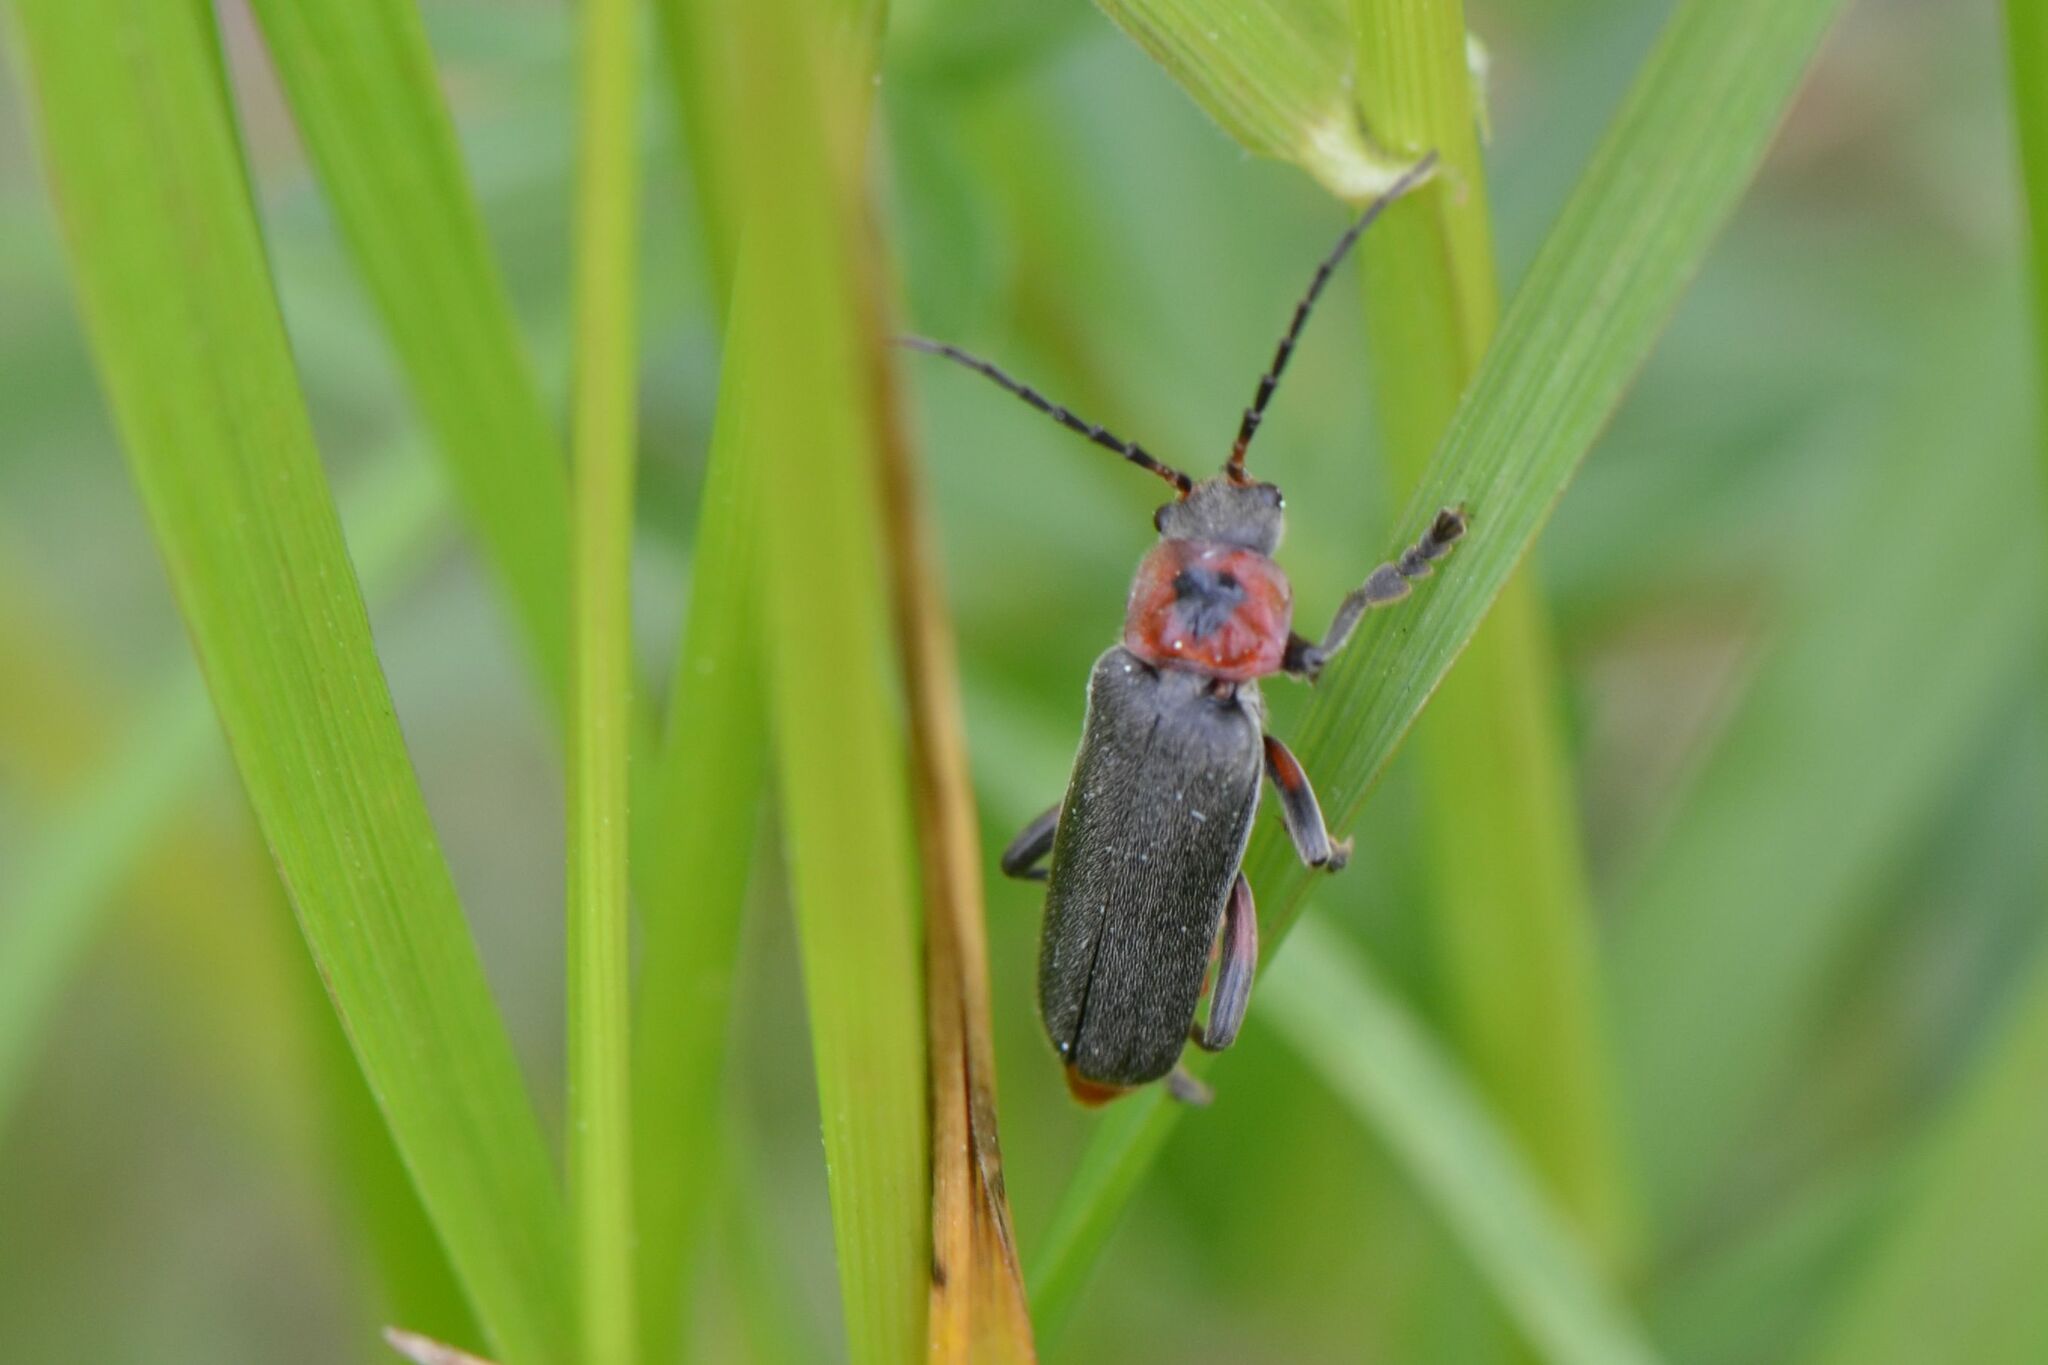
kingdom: Animalia
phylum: Arthropoda
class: Insecta
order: Coleoptera
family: Cantharidae
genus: Cantharis
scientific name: Cantharis rustica
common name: Soldier beetle
